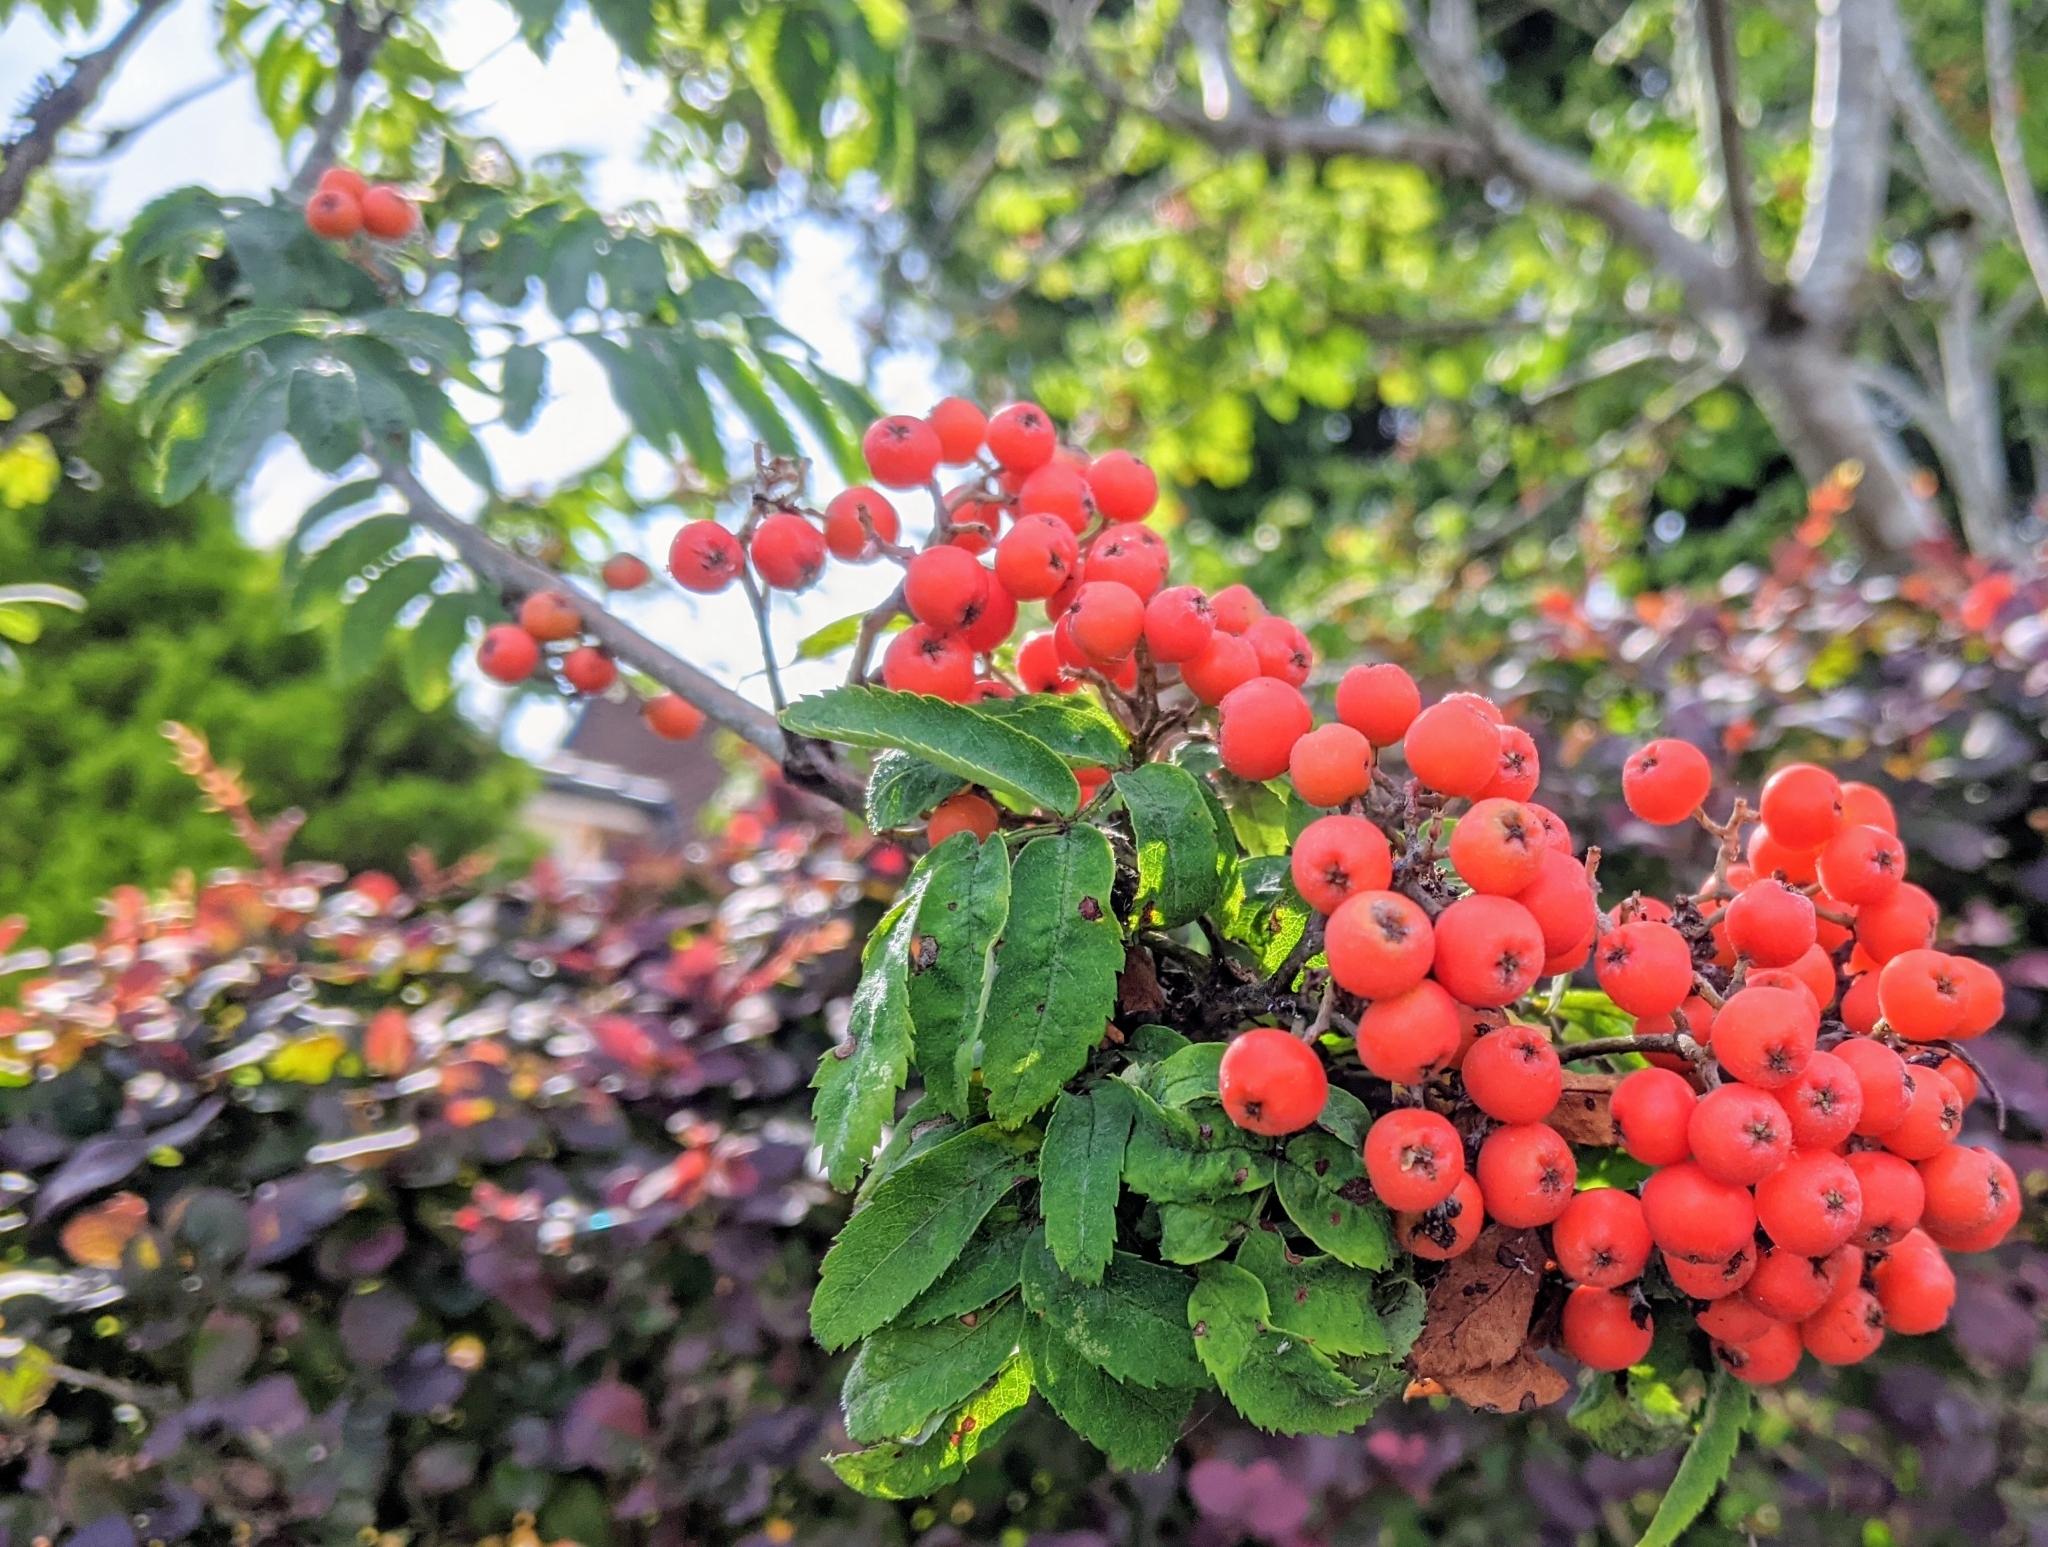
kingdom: Plantae
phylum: Tracheophyta
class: Magnoliopsida
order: Rosales
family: Rosaceae
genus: Sorbus
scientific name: Sorbus aucuparia
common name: Rowan
